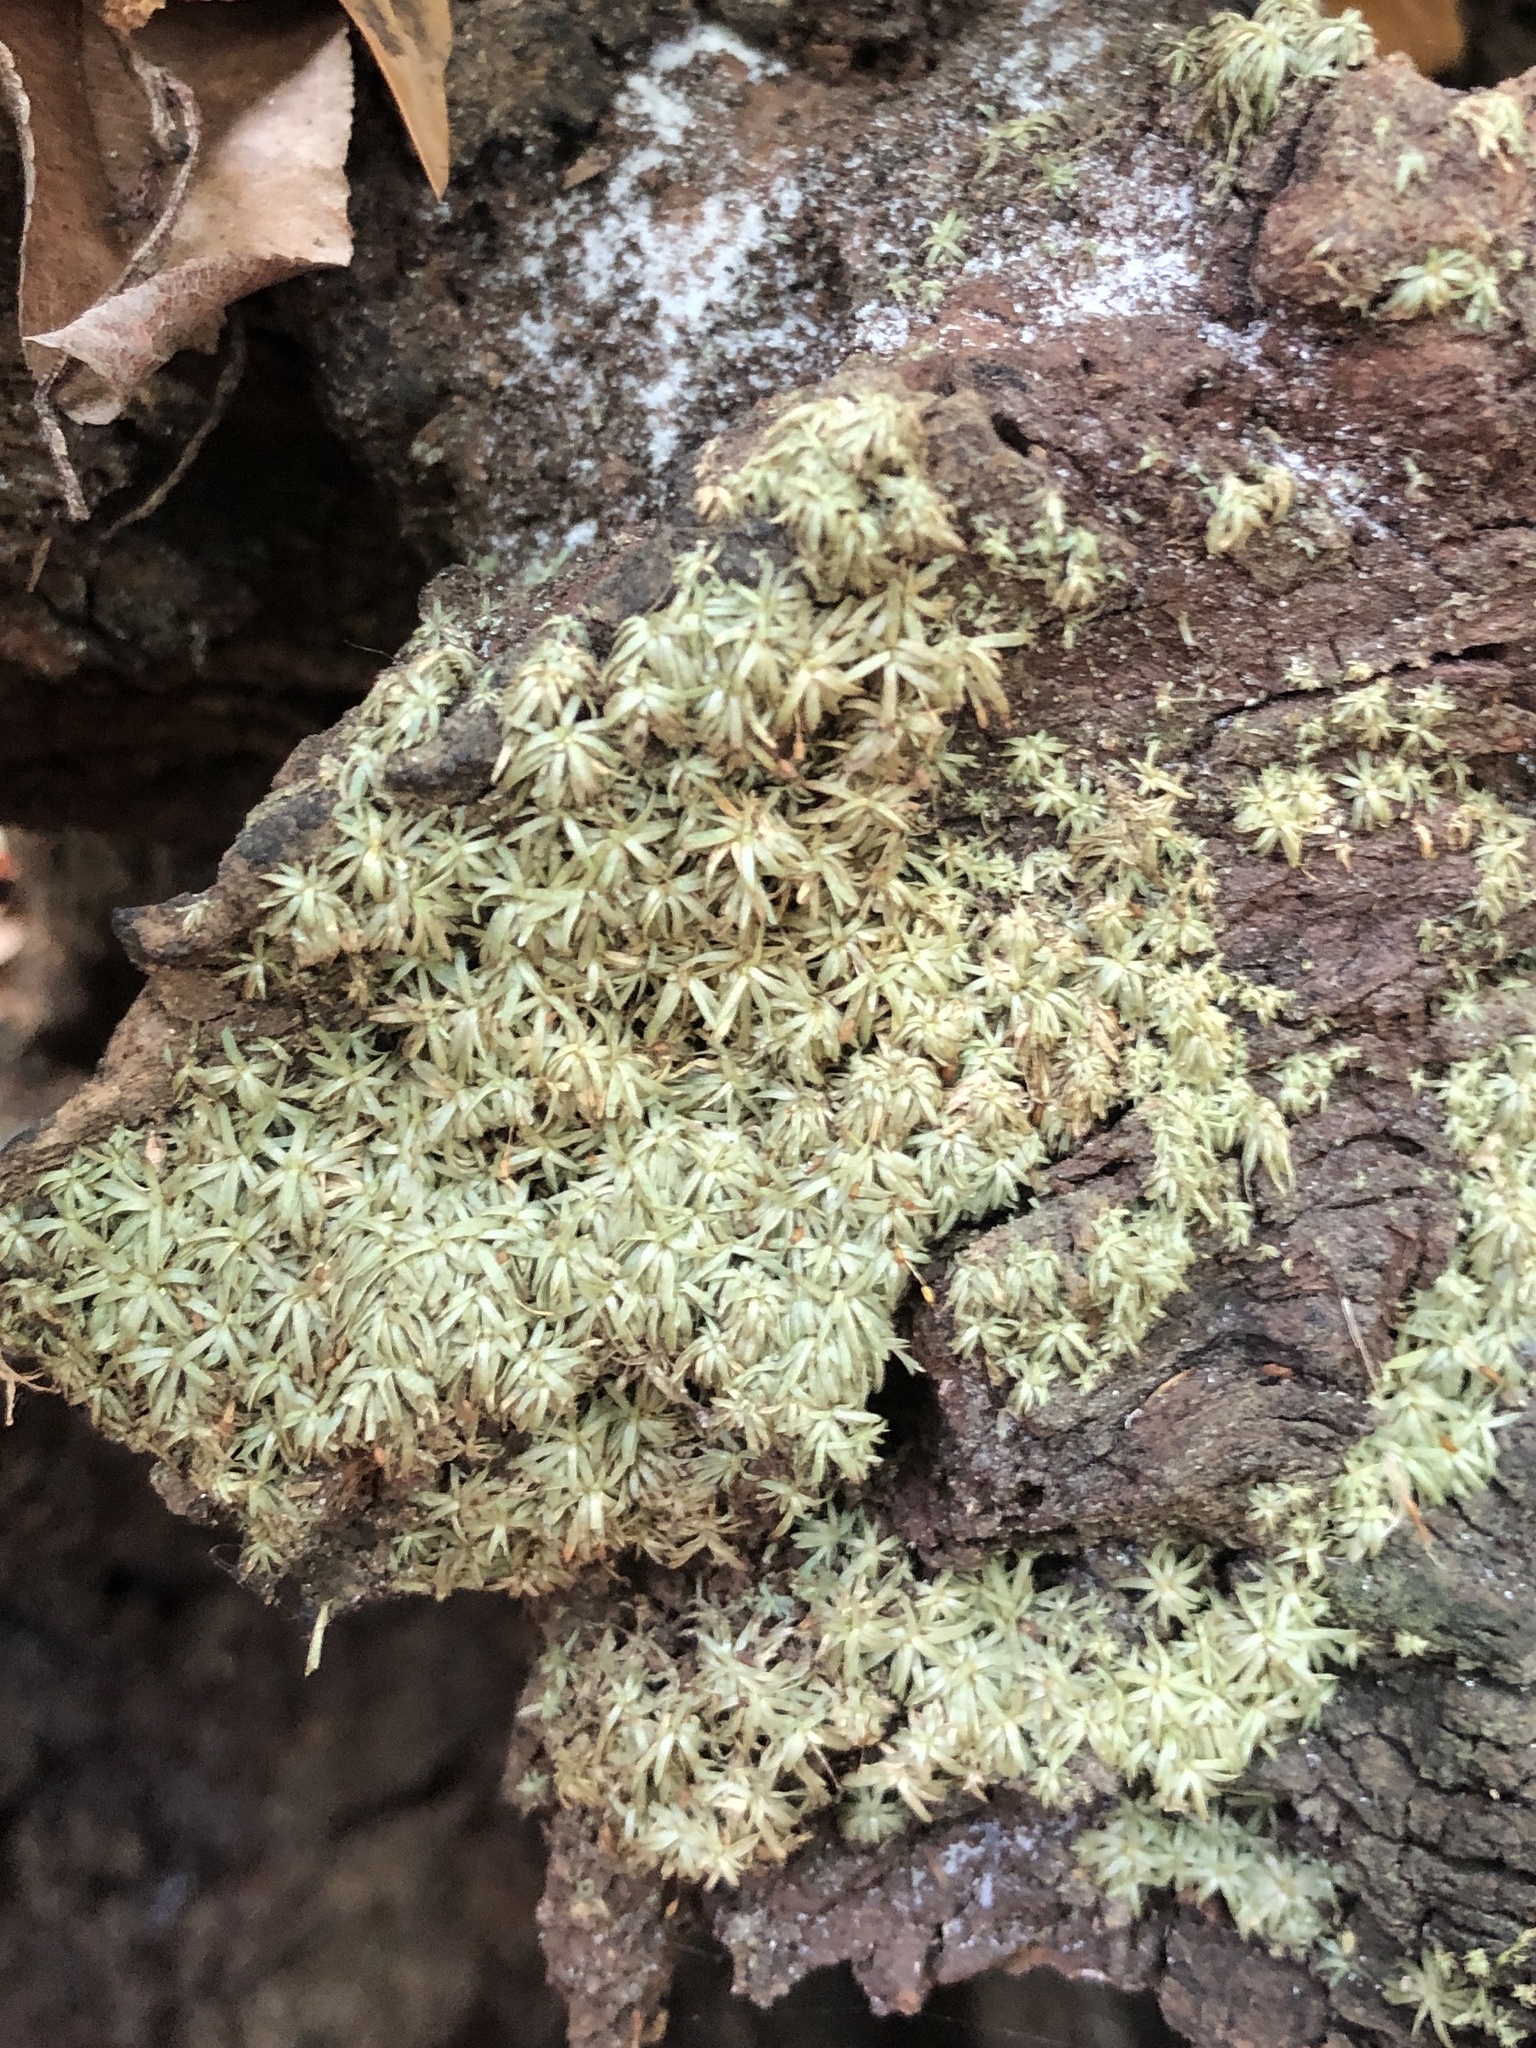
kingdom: Plantae
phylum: Bryophyta
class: Bryopsida
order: Dicranales
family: Octoblepharaceae
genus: Octoblepharum
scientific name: Octoblepharum albidum
